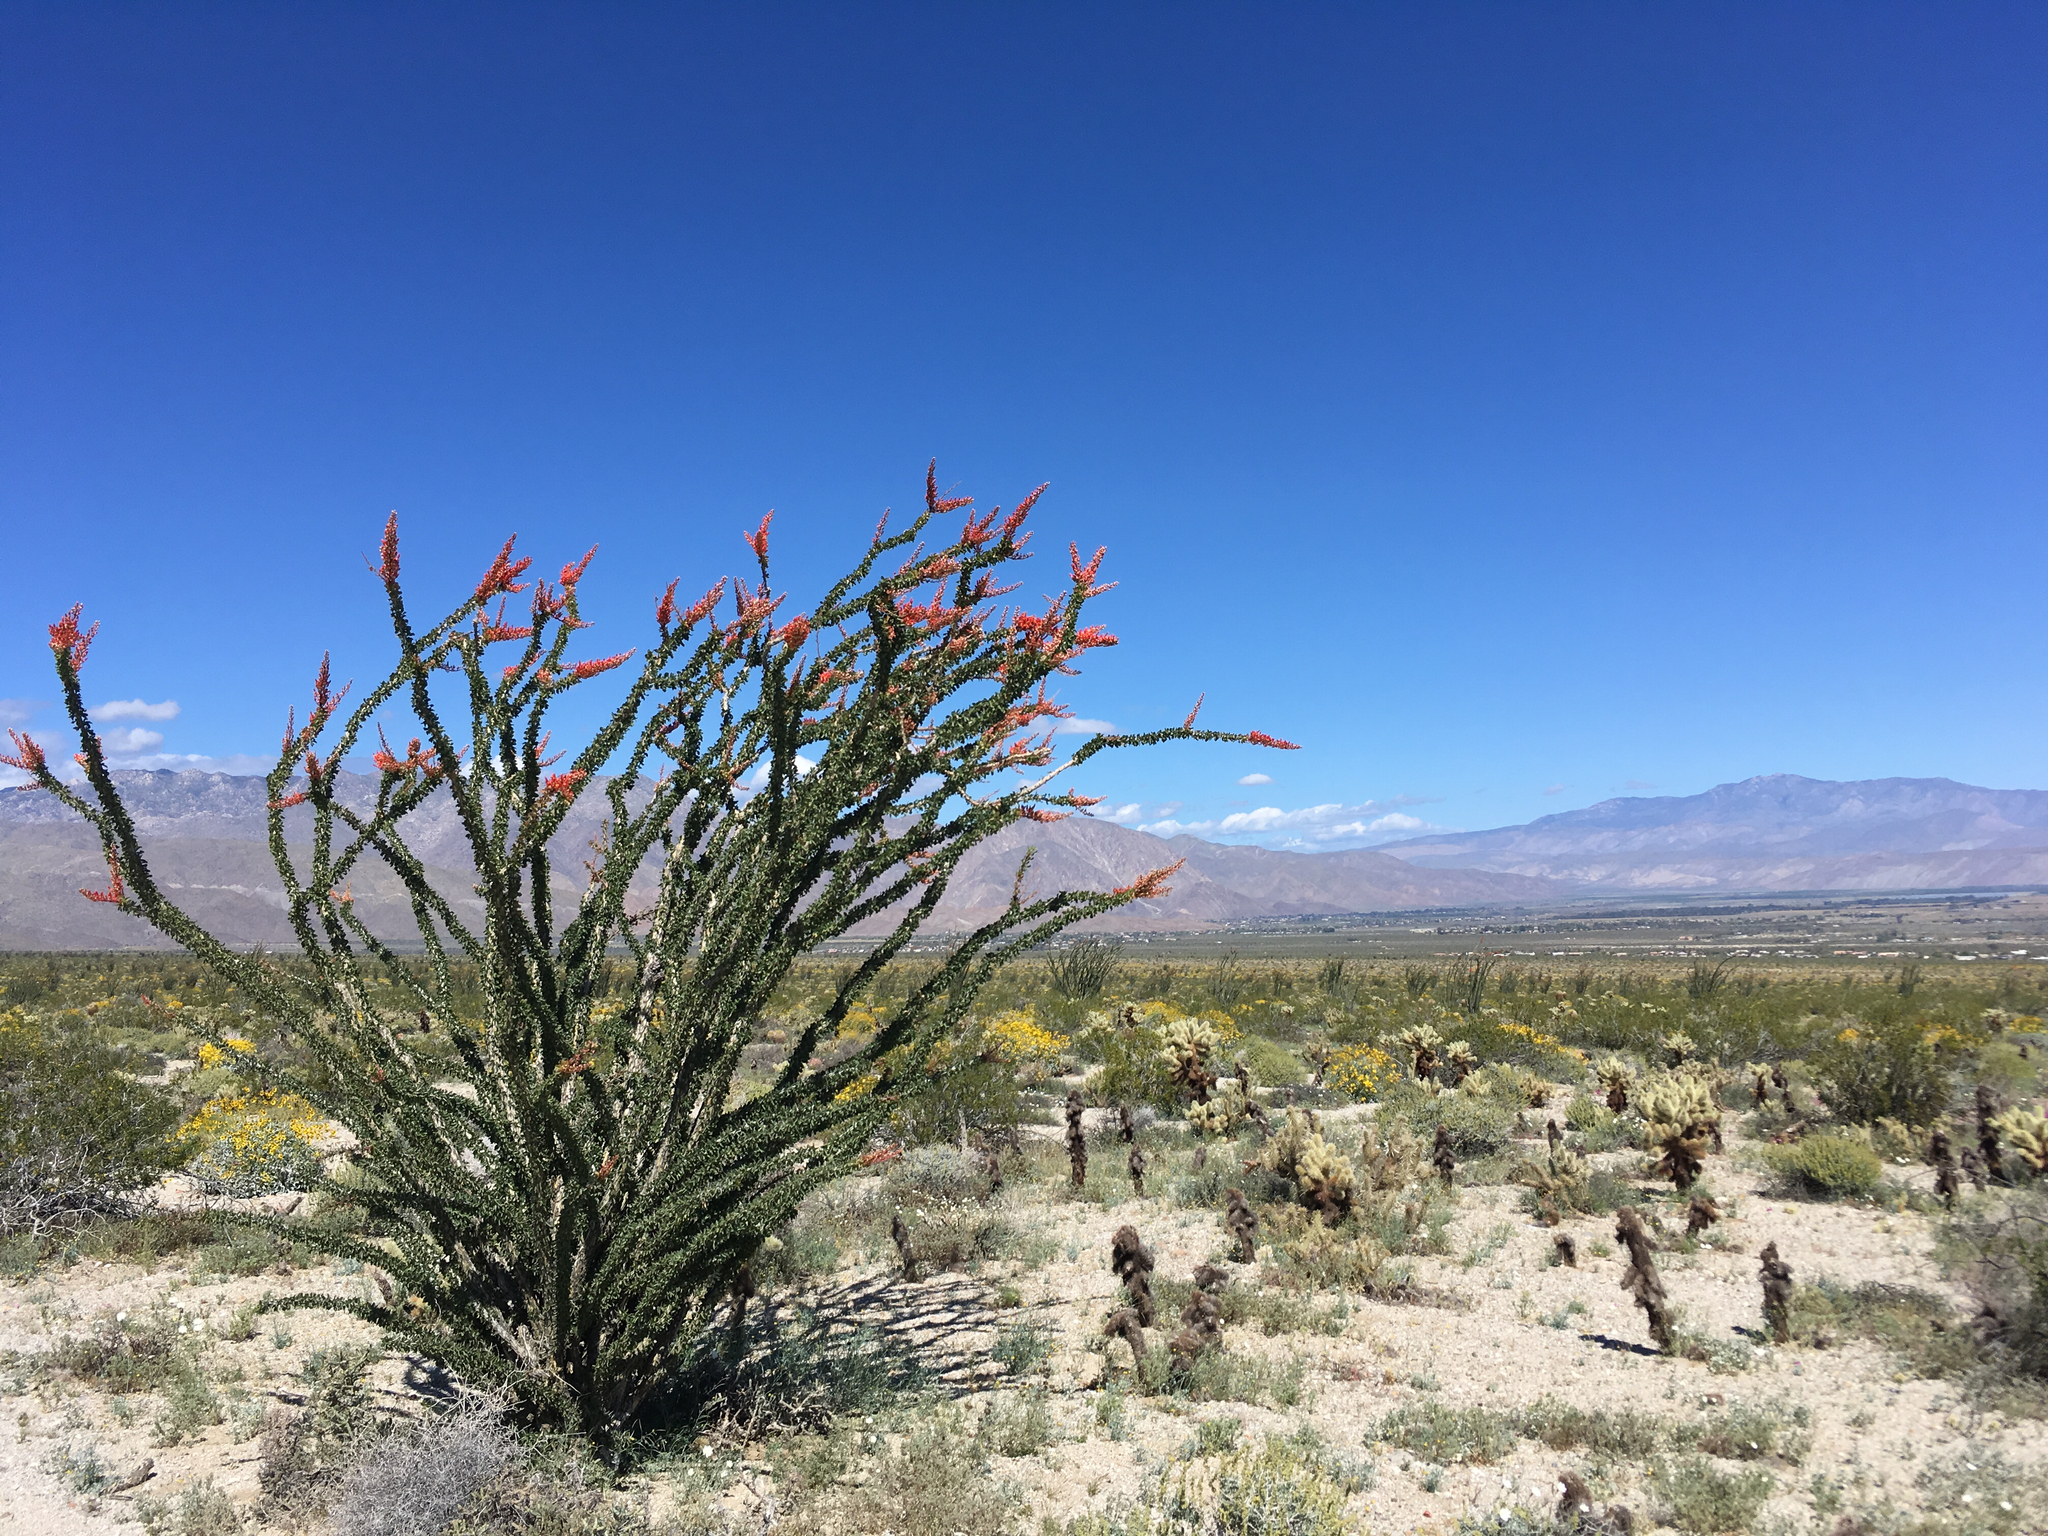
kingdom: Plantae
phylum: Tracheophyta
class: Magnoliopsida
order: Ericales
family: Fouquieriaceae
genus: Fouquieria
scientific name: Fouquieria splendens
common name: Vine-cactus
